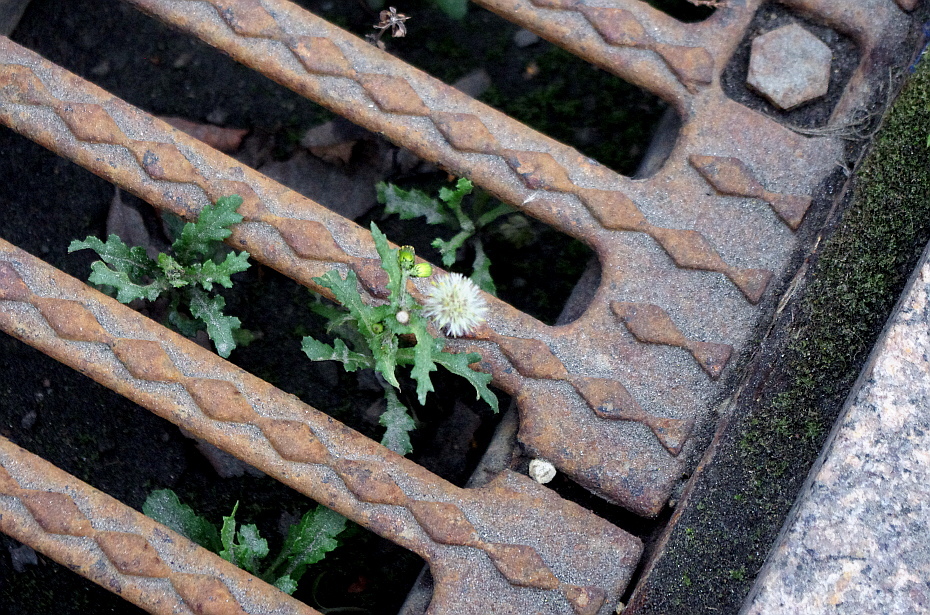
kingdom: Plantae
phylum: Tracheophyta
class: Magnoliopsida
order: Asterales
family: Asteraceae
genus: Senecio
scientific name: Senecio vulgaris
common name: Old-man-in-the-spring
